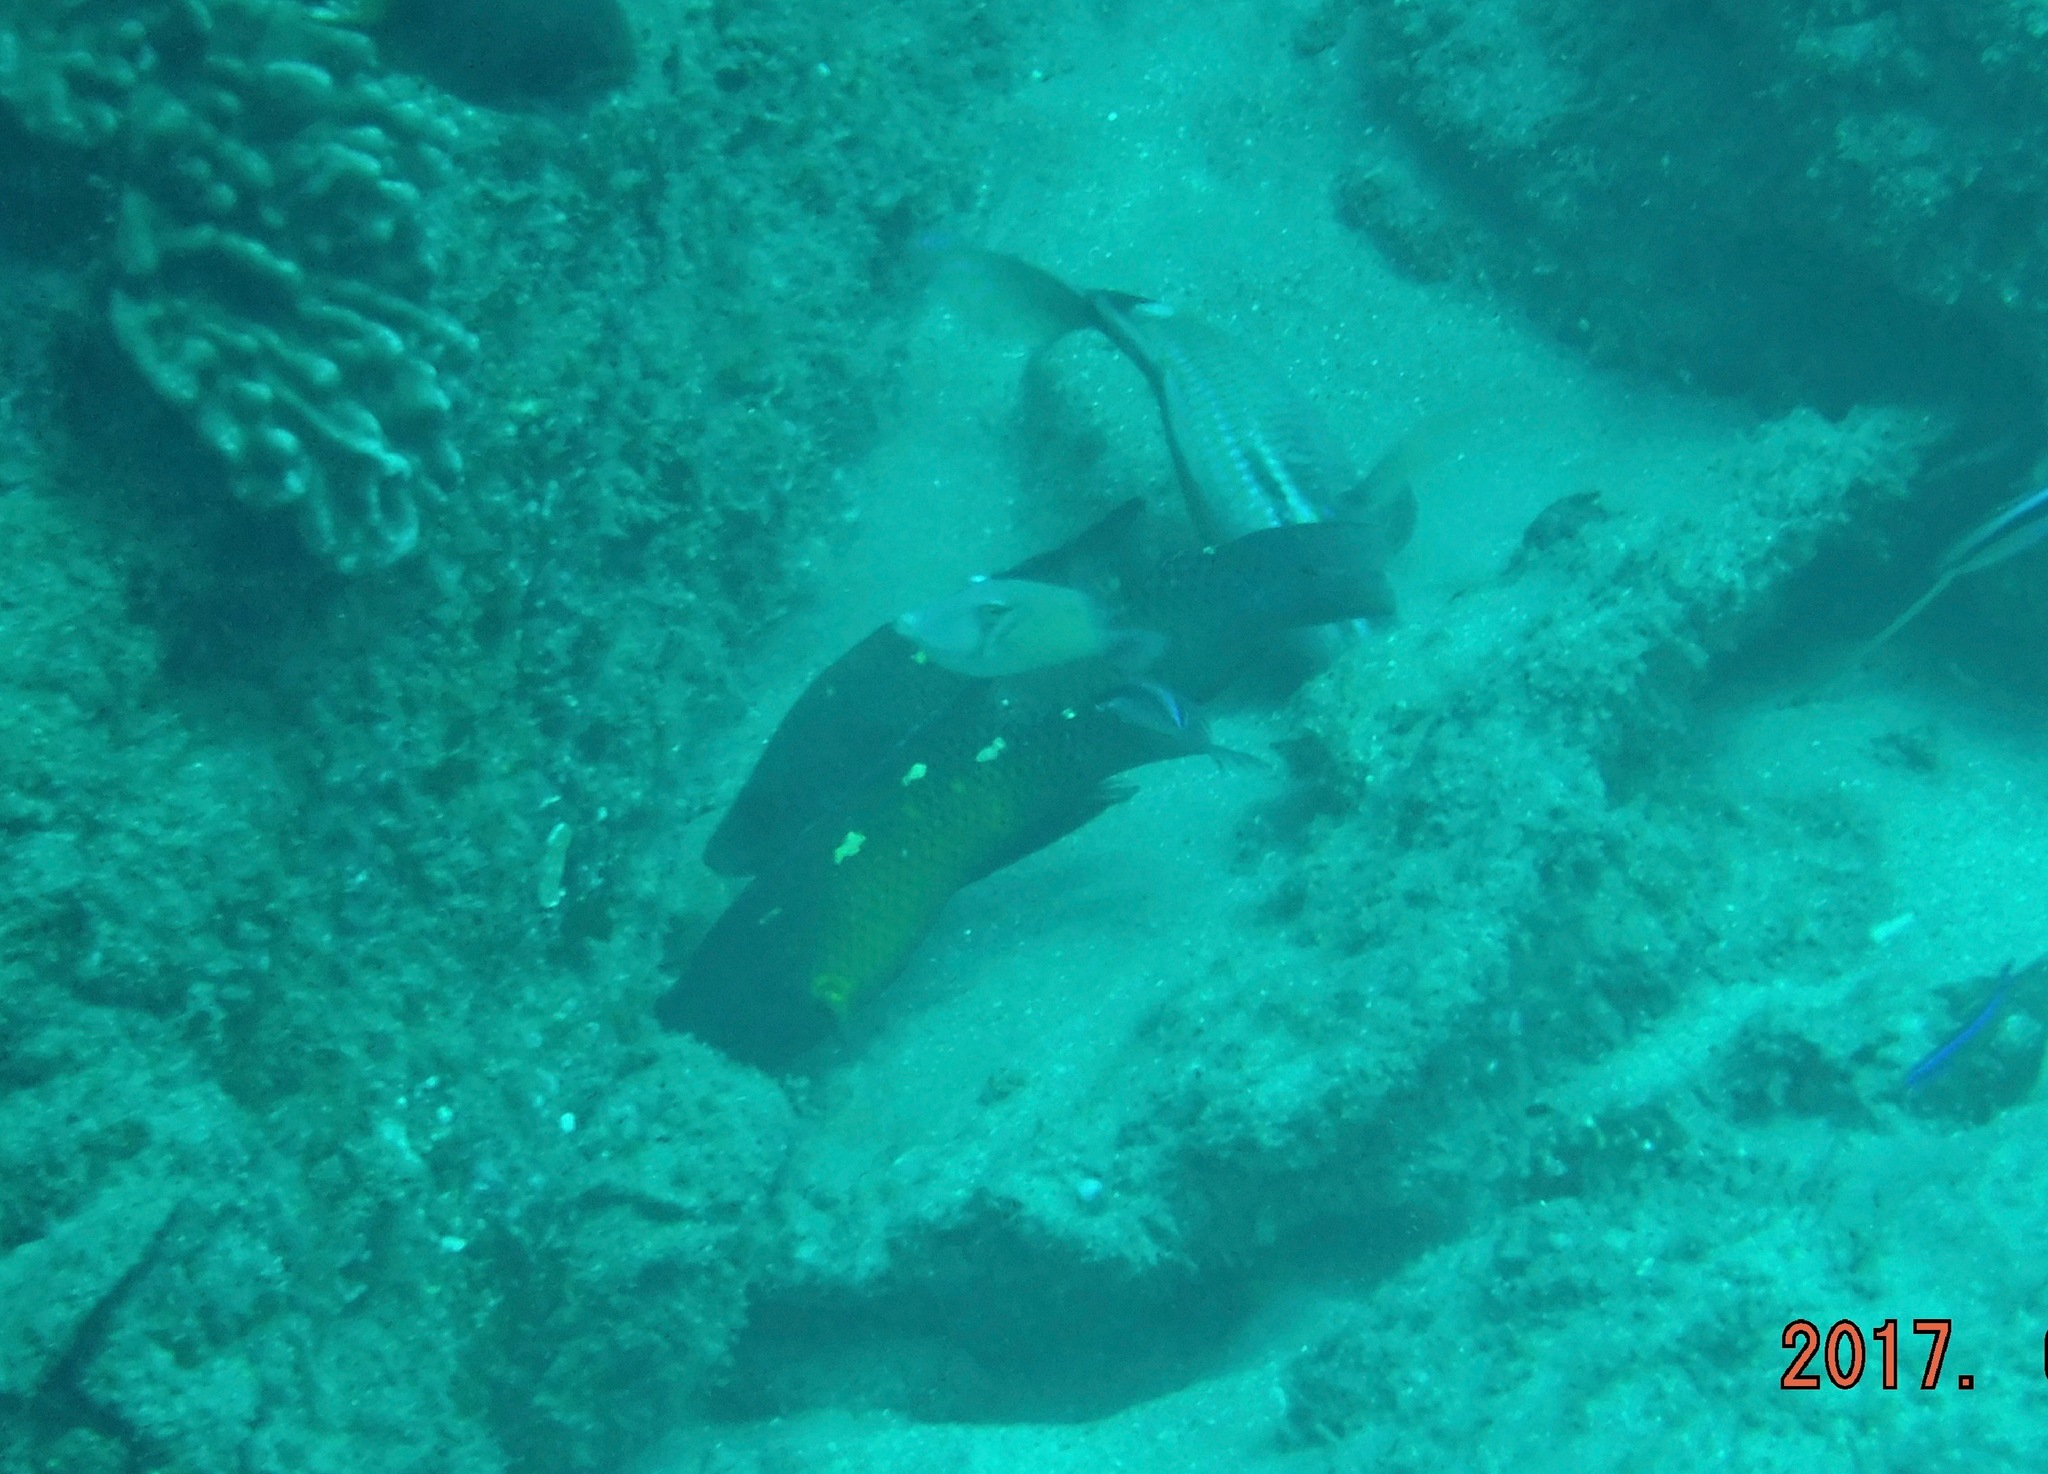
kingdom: Animalia
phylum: Chordata
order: Perciformes
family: Labridae
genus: Bodianus
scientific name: Bodianus diana
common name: Diana's hogfish
